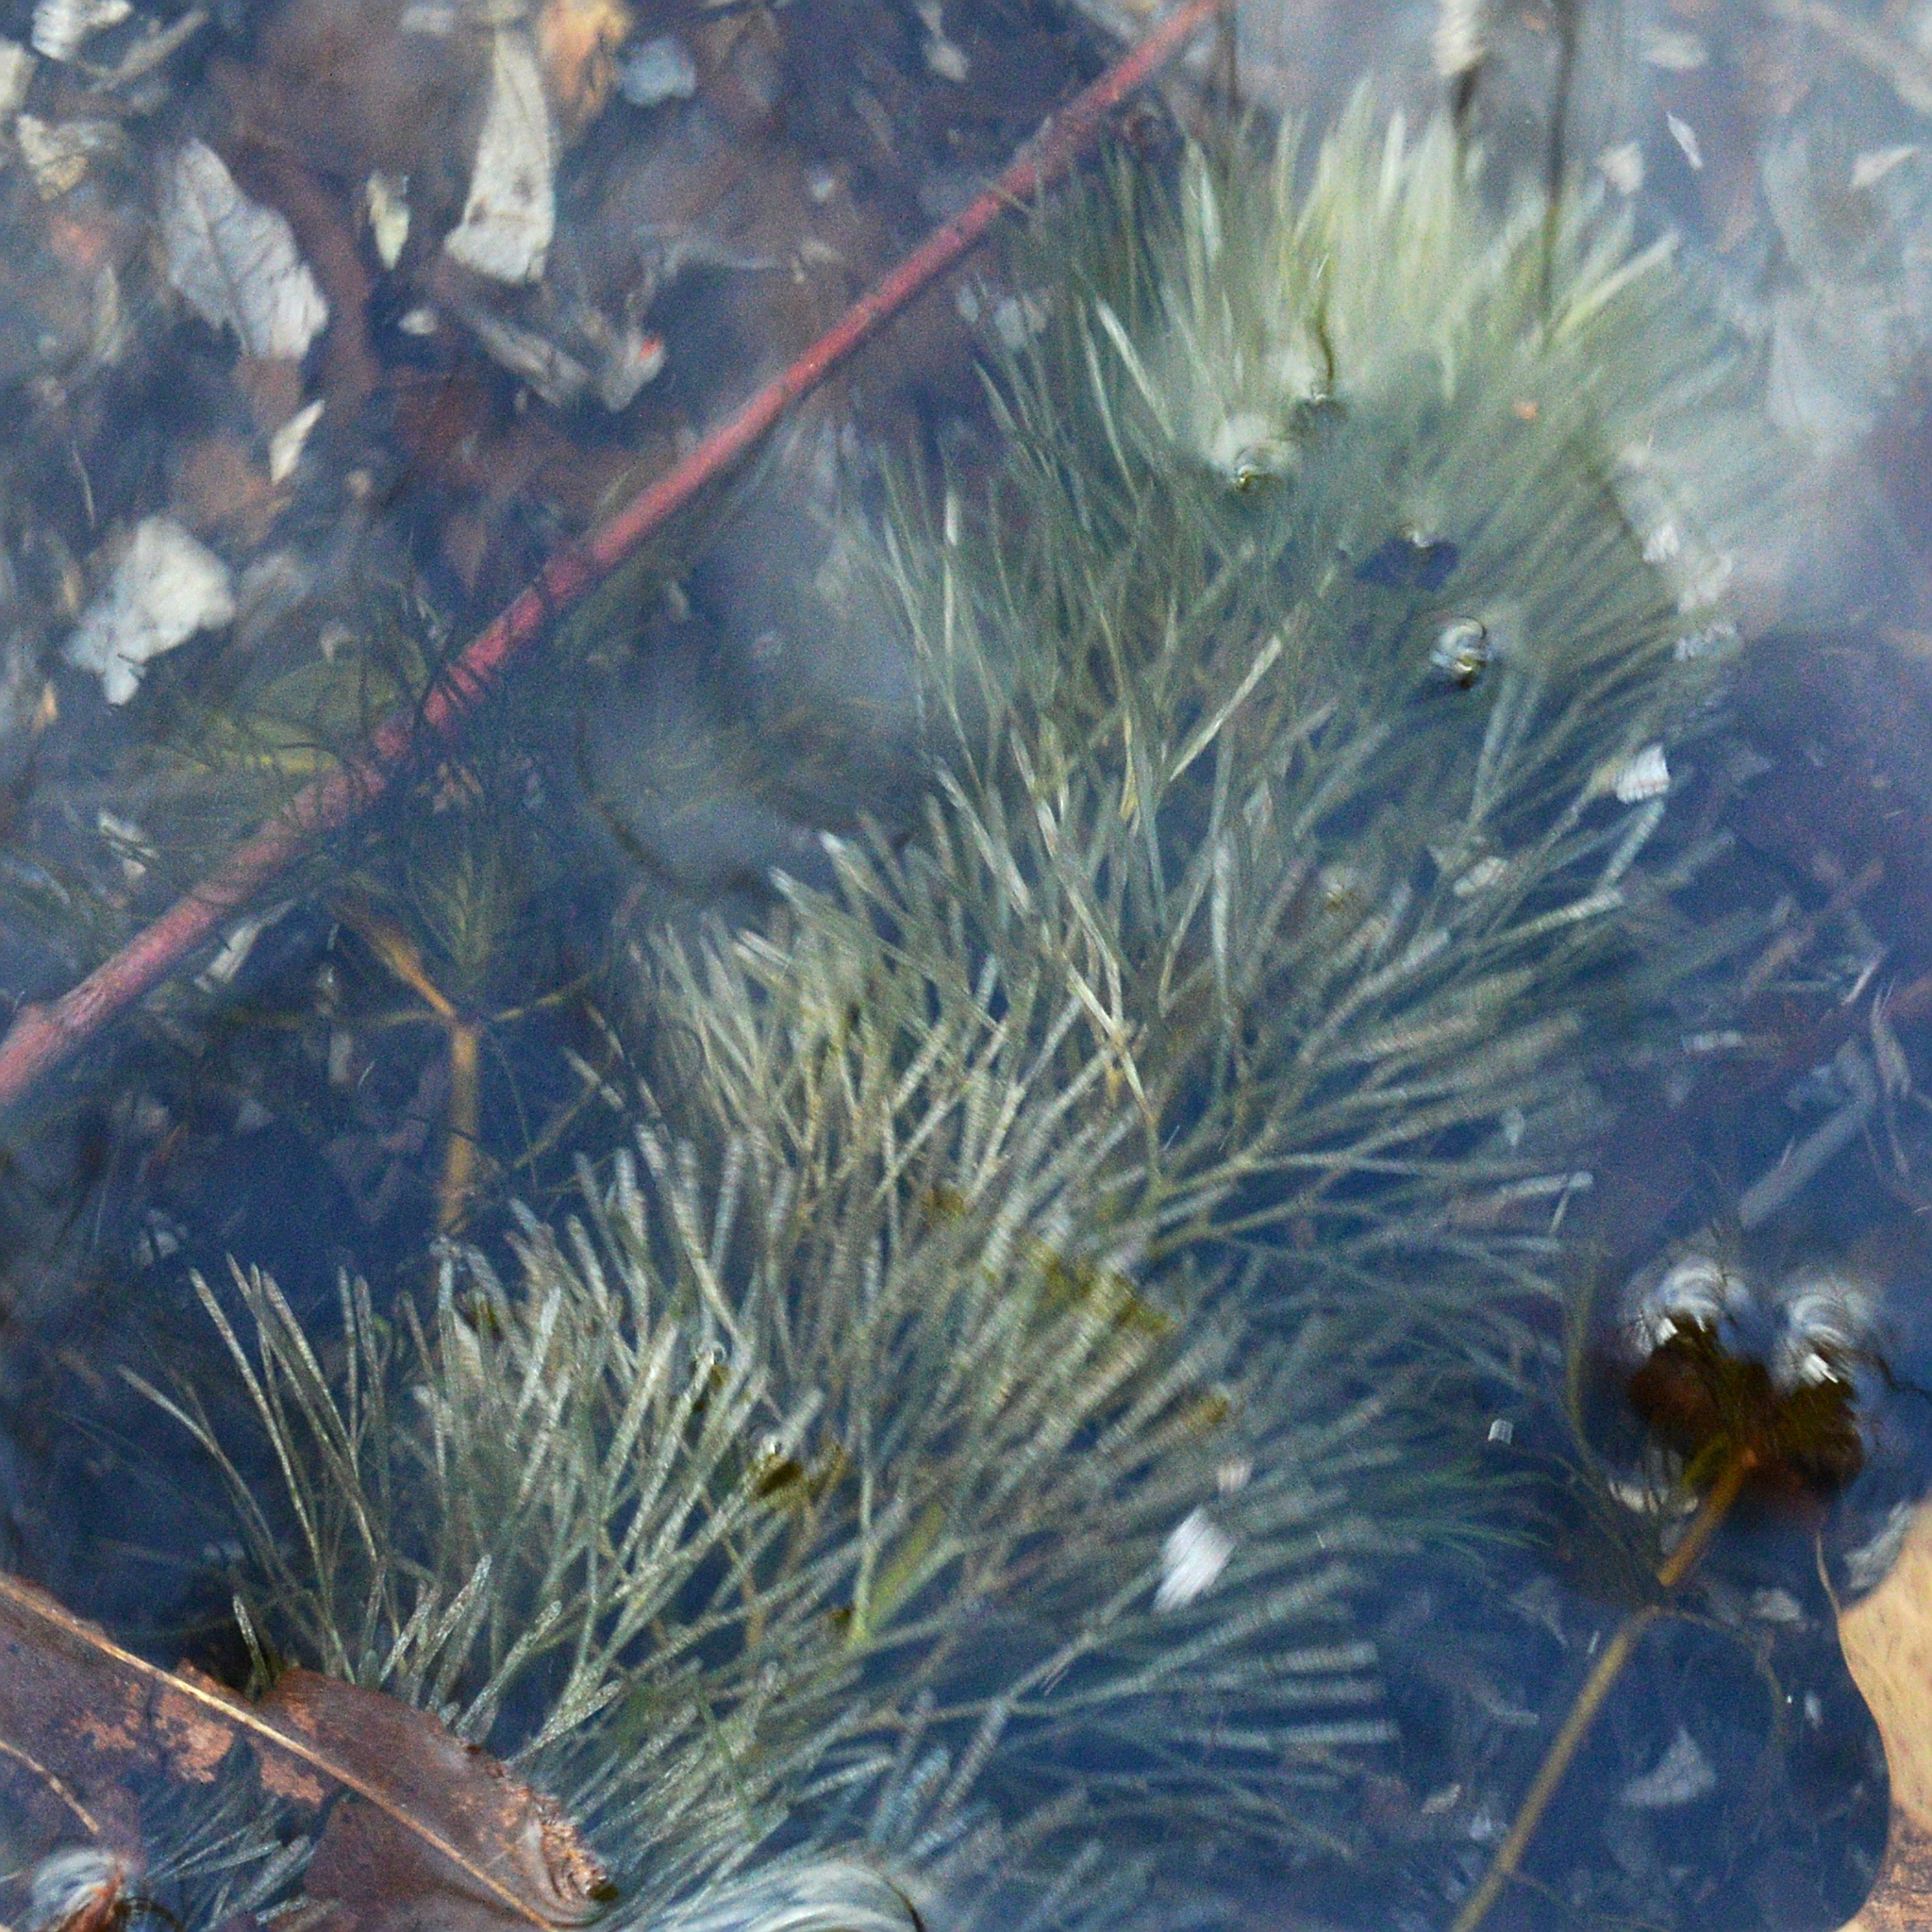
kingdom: Plantae
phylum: Tracheophyta
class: Magnoliopsida
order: Nymphaeales
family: Cabombaceae
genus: Cabomba
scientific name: Cabomba caroliniana
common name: Fanwort
